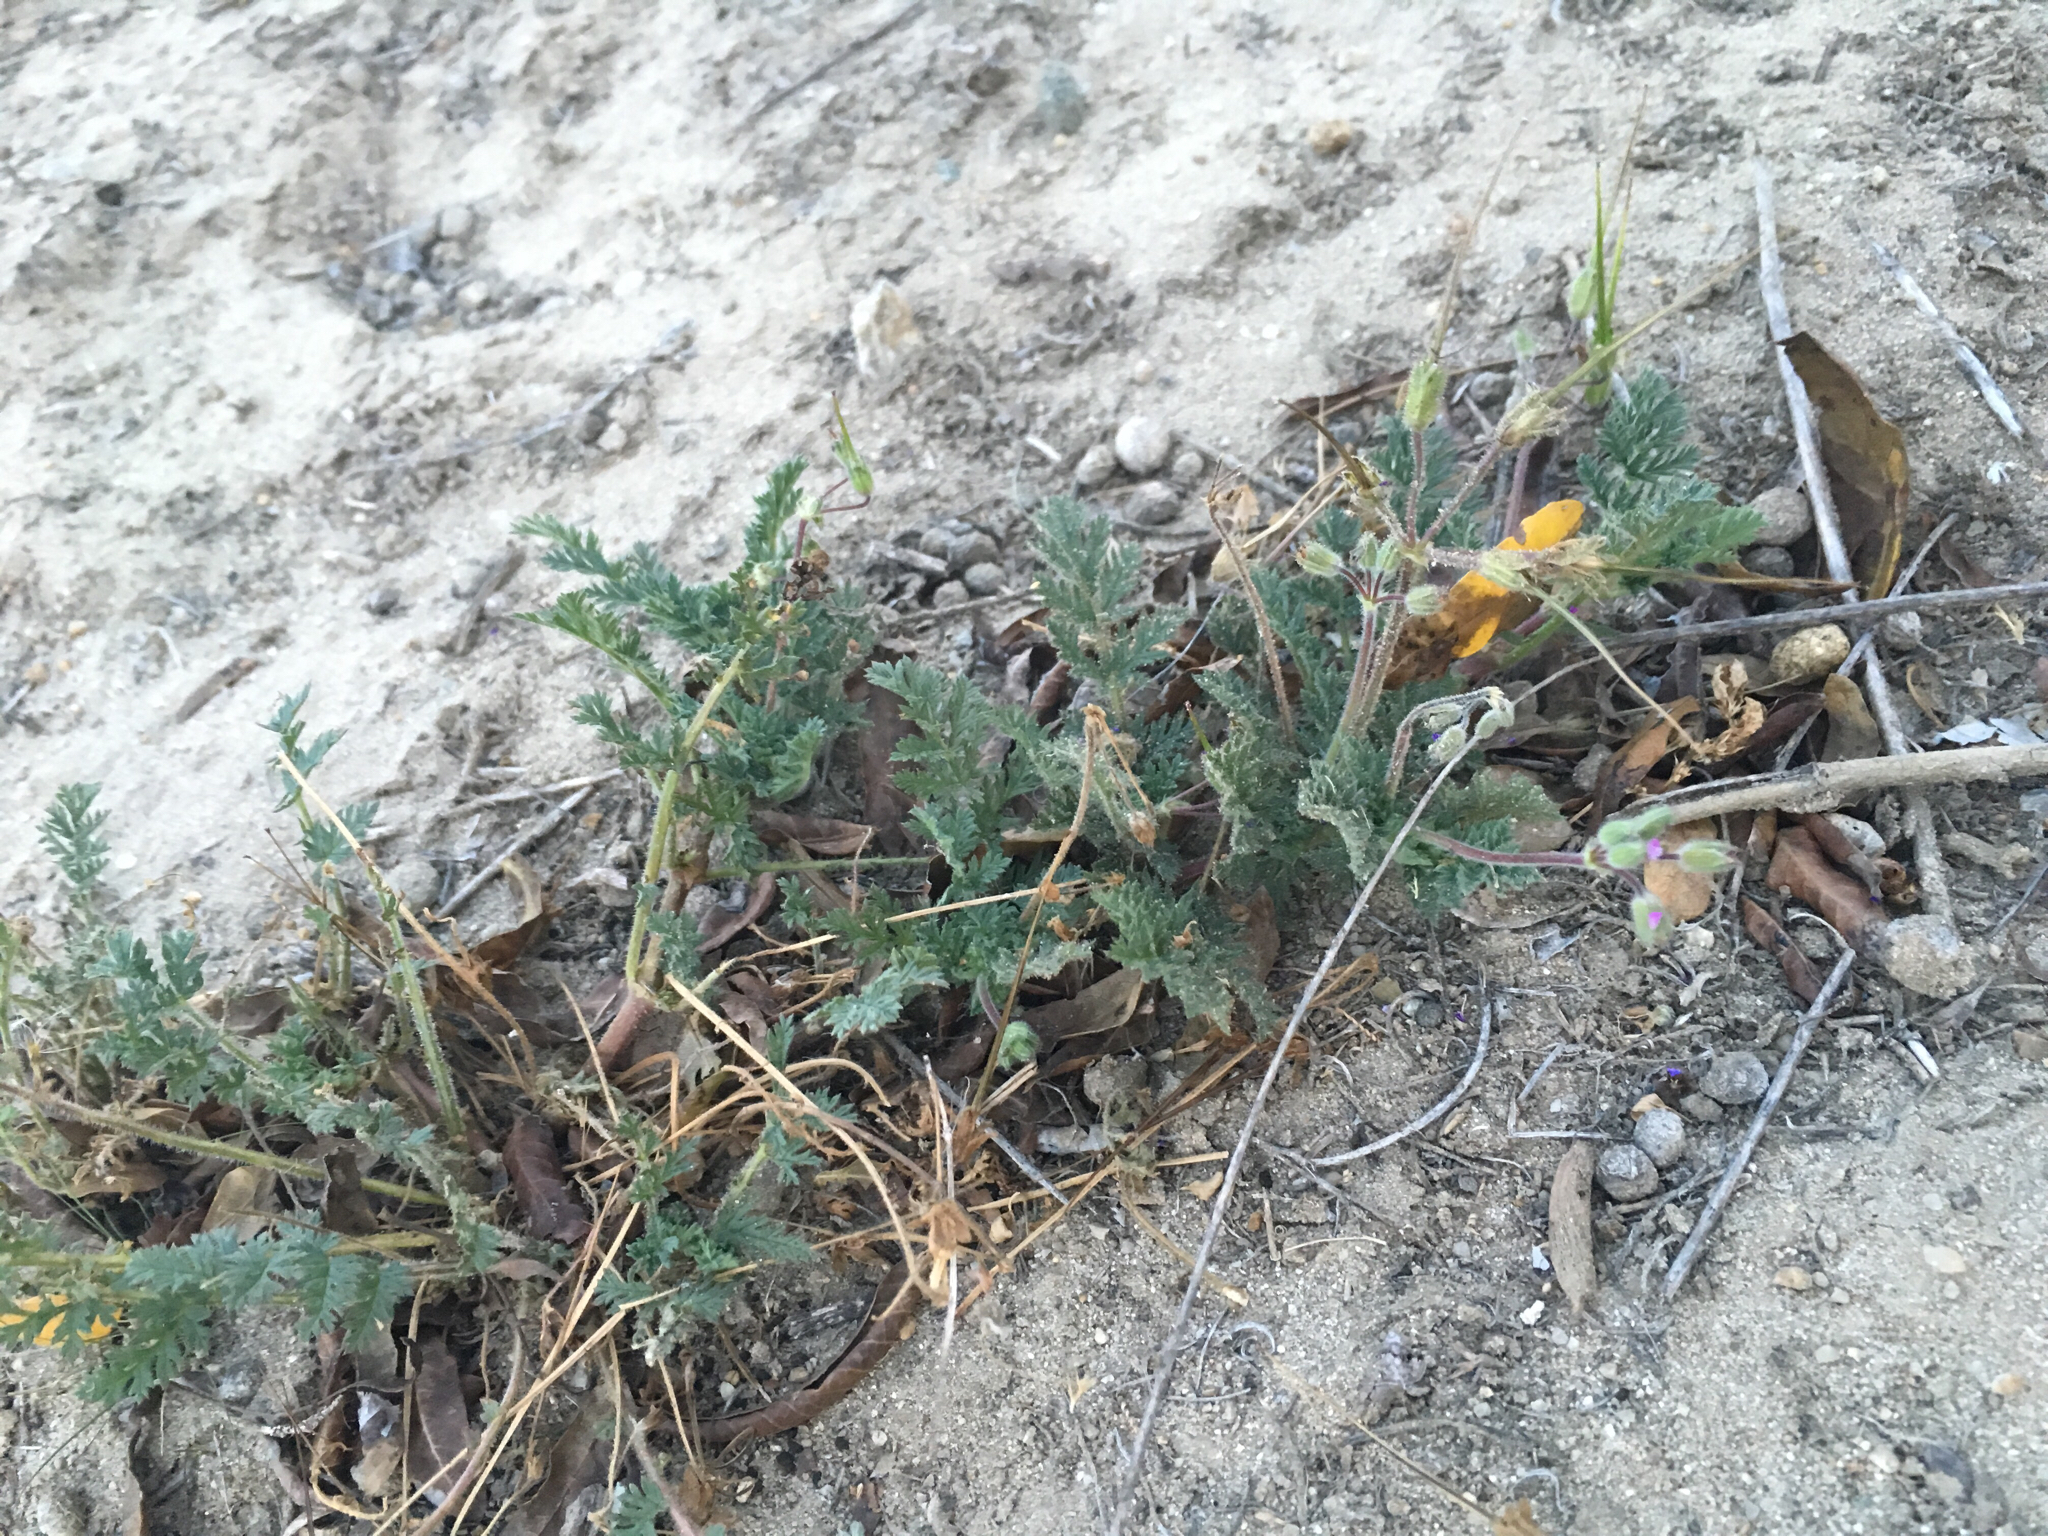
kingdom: Plantae
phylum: Tracheophyta
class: Magnoliopsida
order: Geraniales
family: Geraniaceae
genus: Erodium
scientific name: Erodium cicutarium
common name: Common stork's-bill
